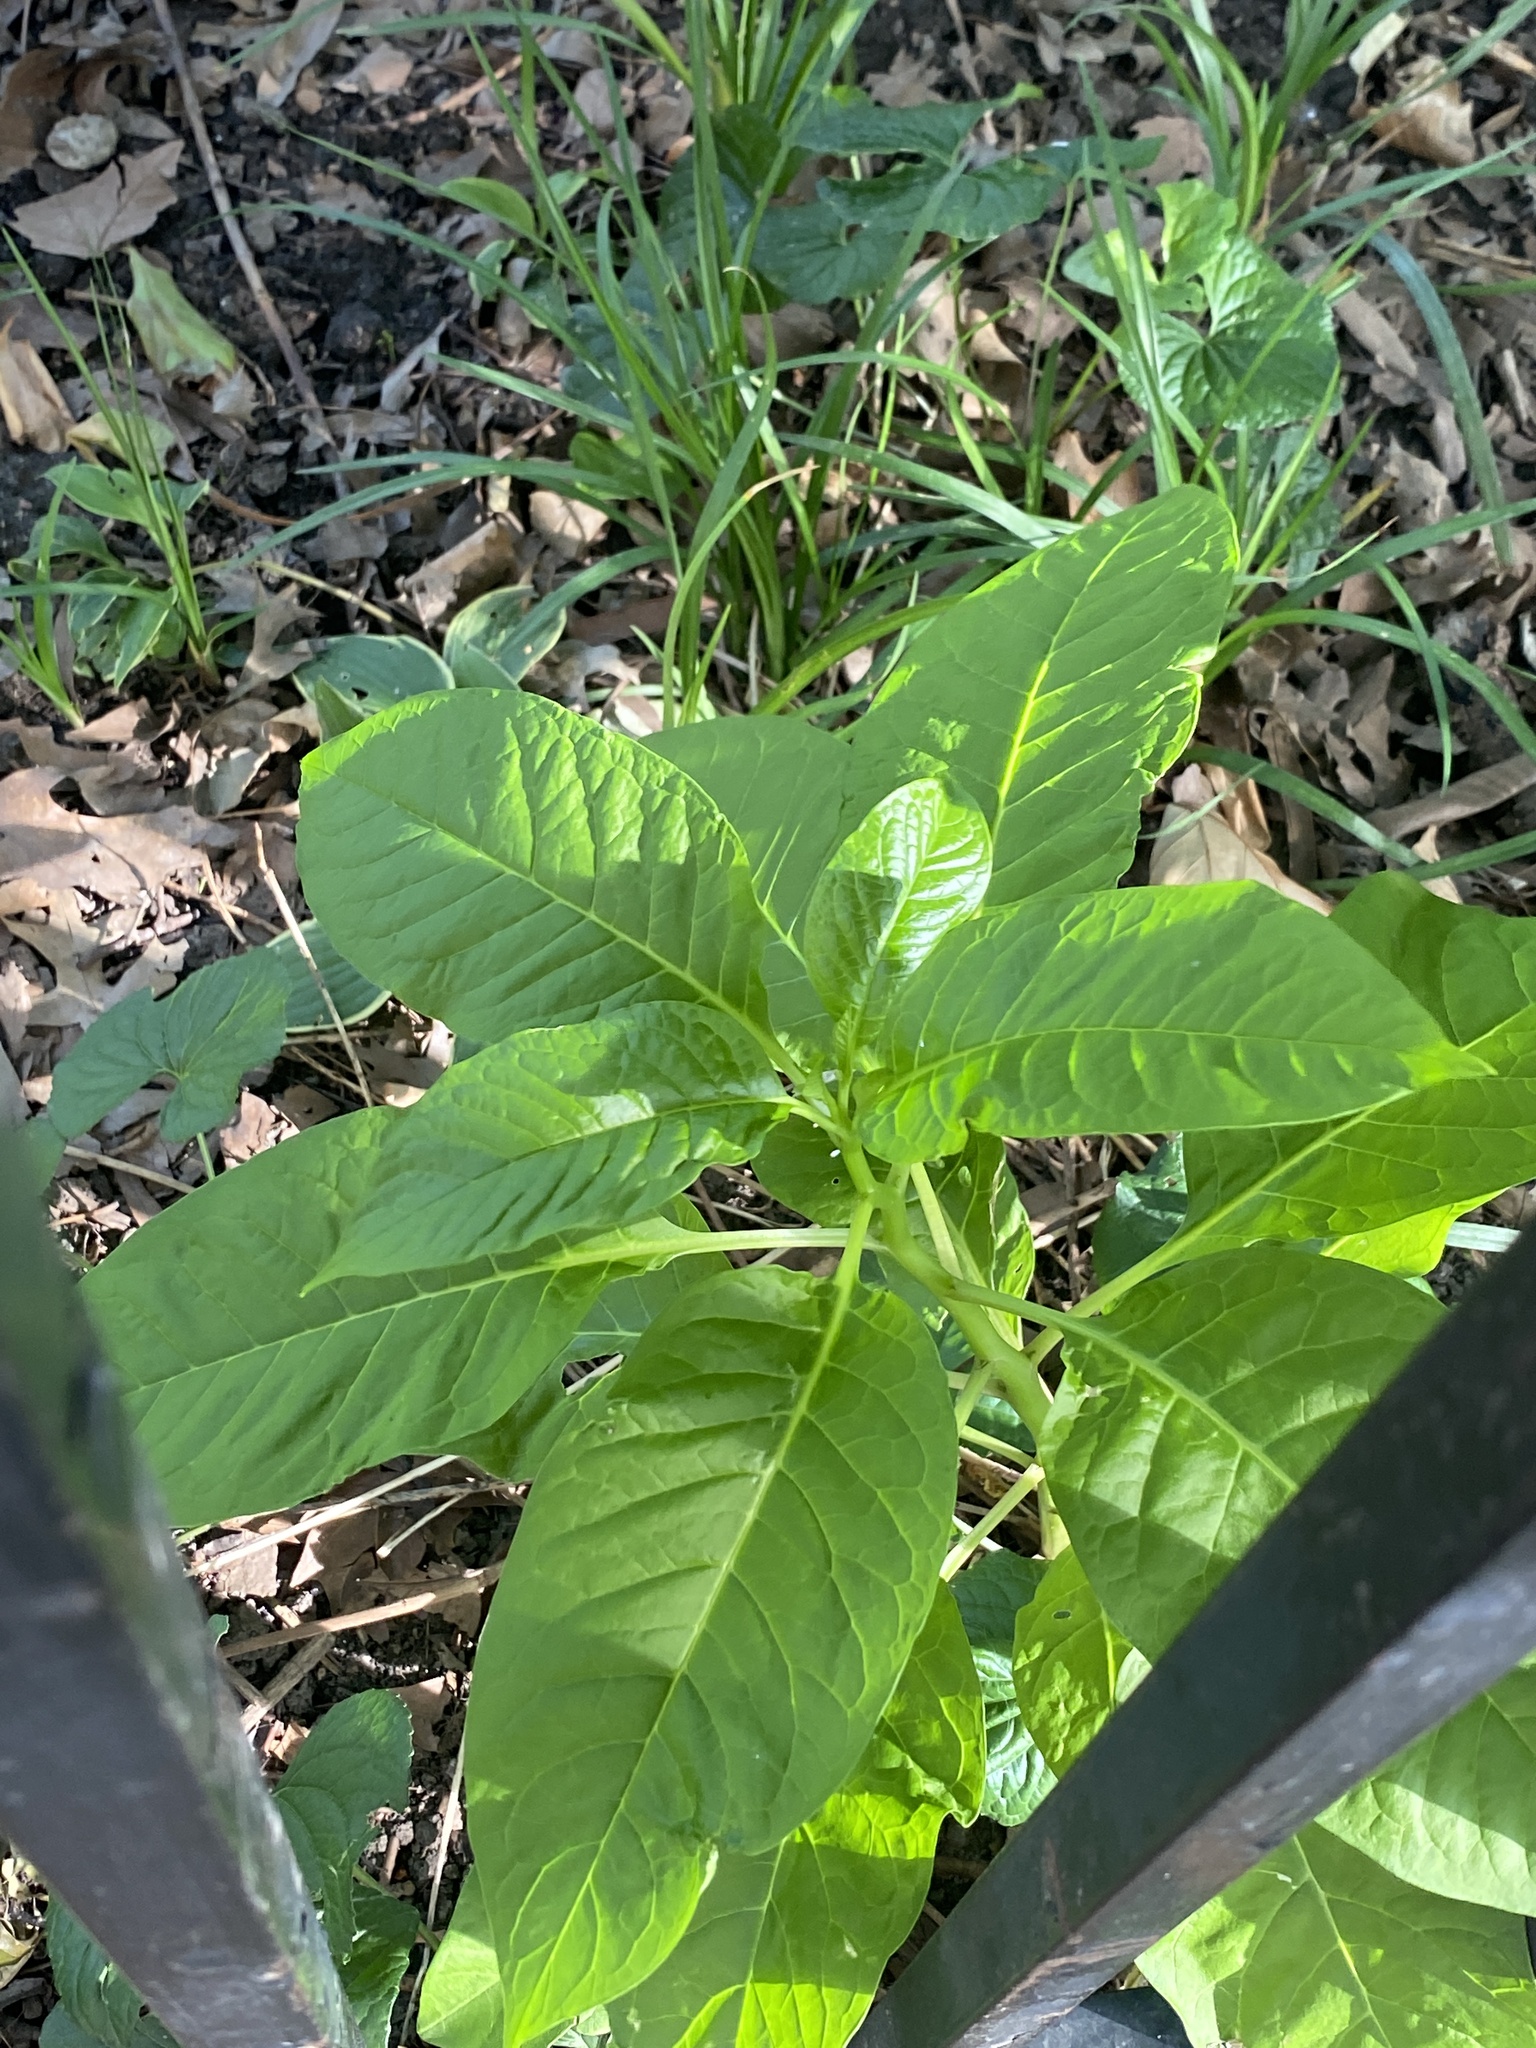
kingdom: Plantae
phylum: Tracheophyta
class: Magnoliopsida
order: Caryophyllales
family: Phytolaccaceae
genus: Phytolacca
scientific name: Phytolacca americana
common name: American pokeweed
